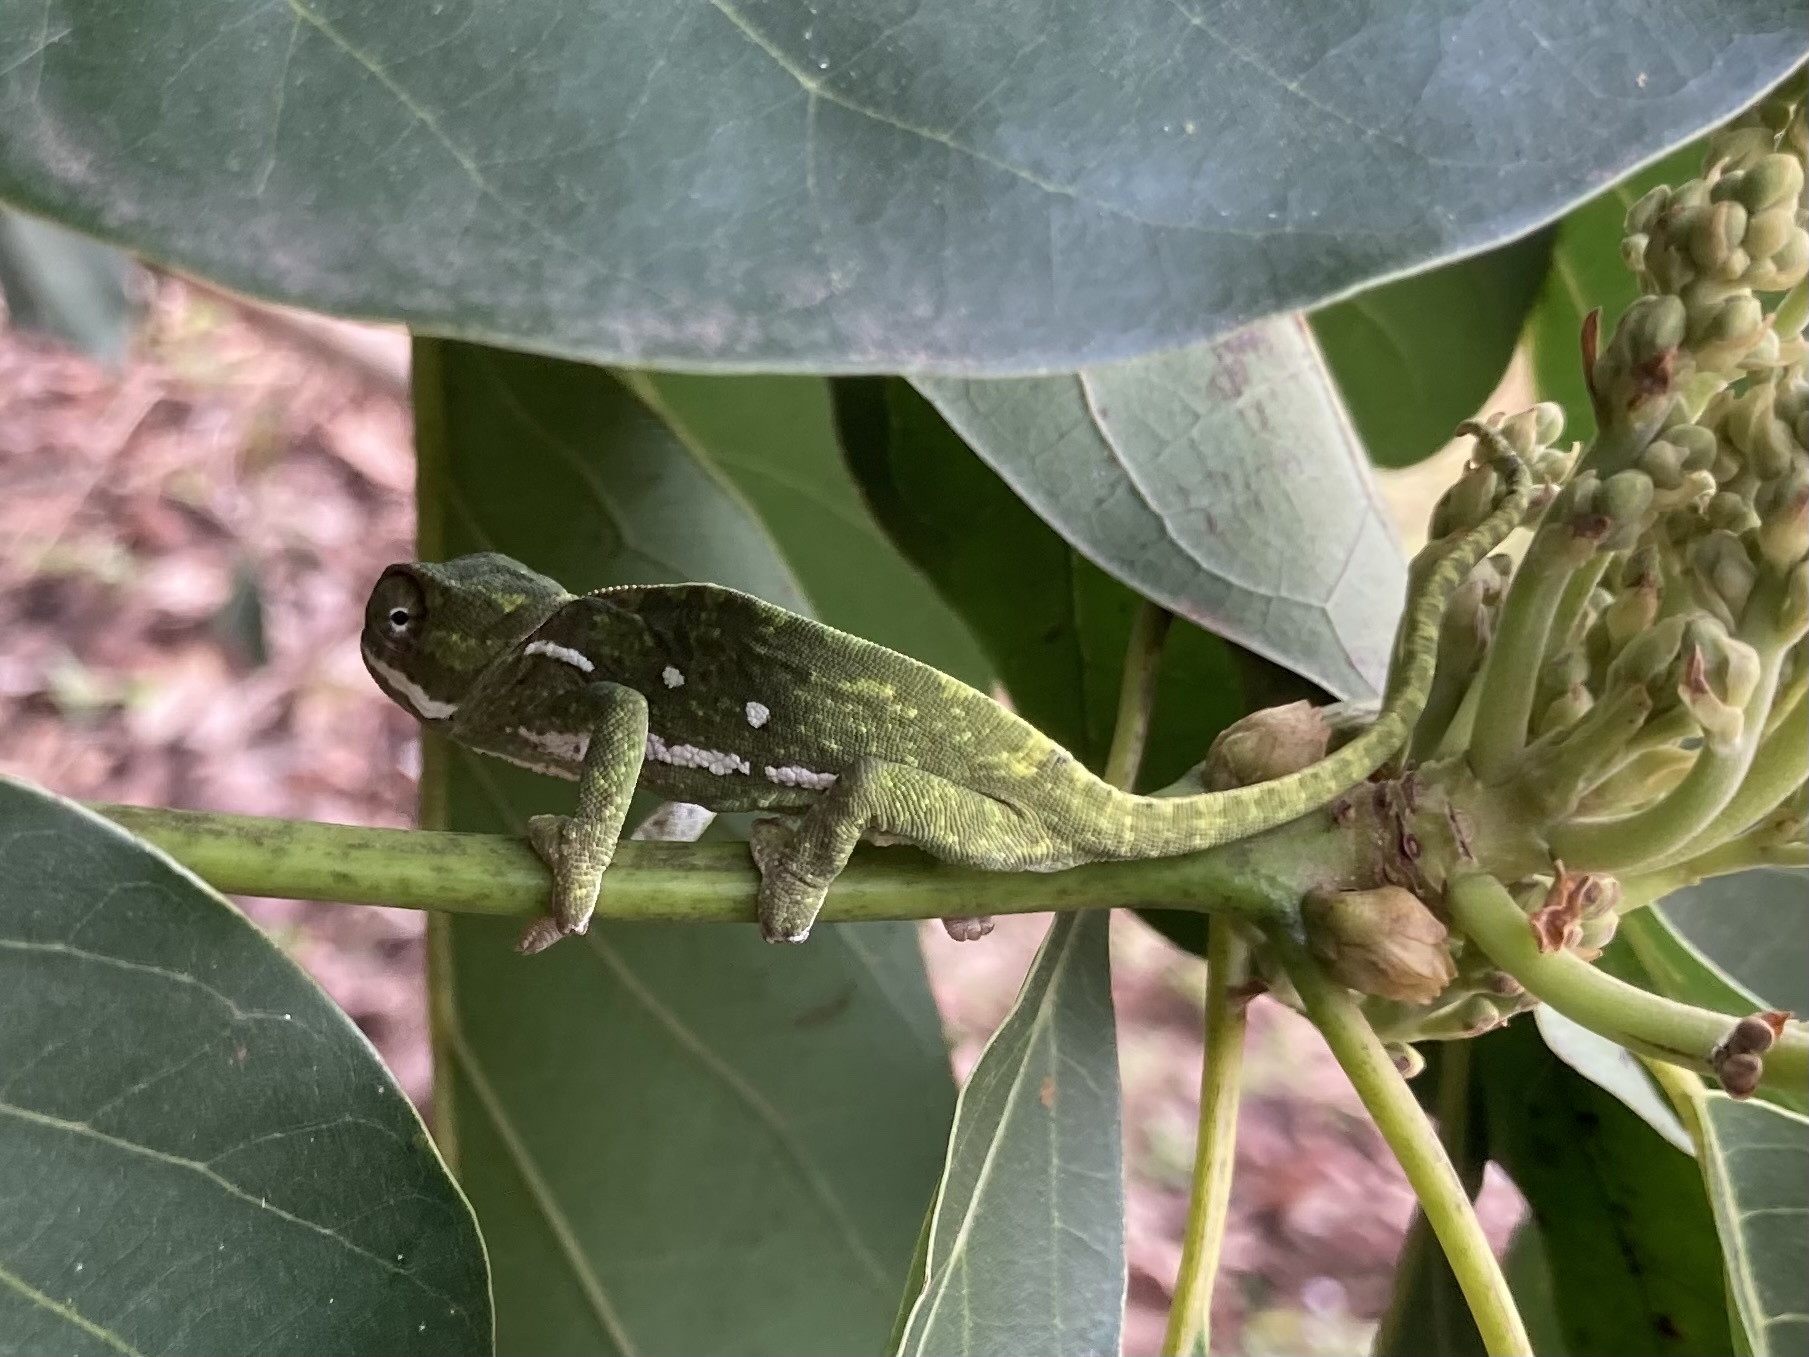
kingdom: Animalia
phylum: Chordata
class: Squamata
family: Chamaeleonidae
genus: Chamaeleo
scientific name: Chamaeleo dilepis
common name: Flapneck chameleon
